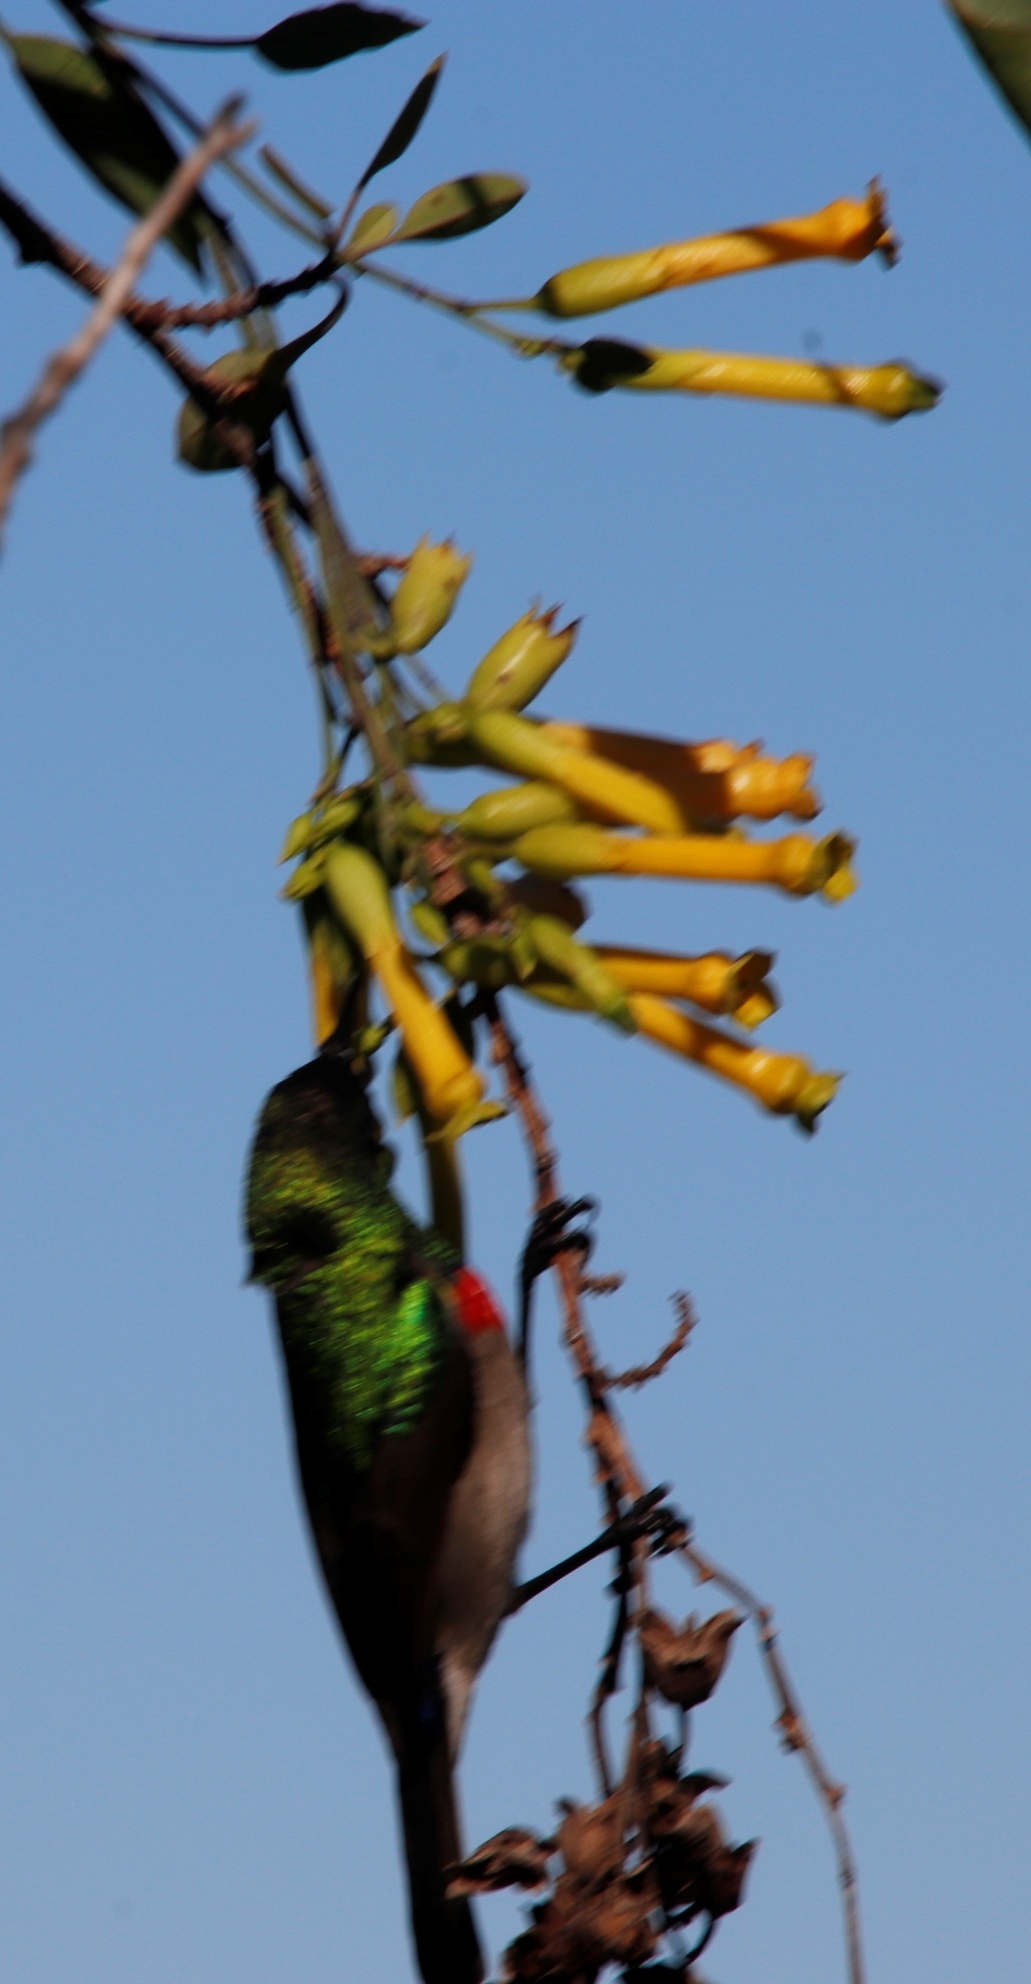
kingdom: Animalia
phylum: Chordata
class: Aves
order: Passeriformes
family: Nectariniidae
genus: Cinnyris
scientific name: Cinnyris chalybeus
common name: Southern double-collared sunbird
